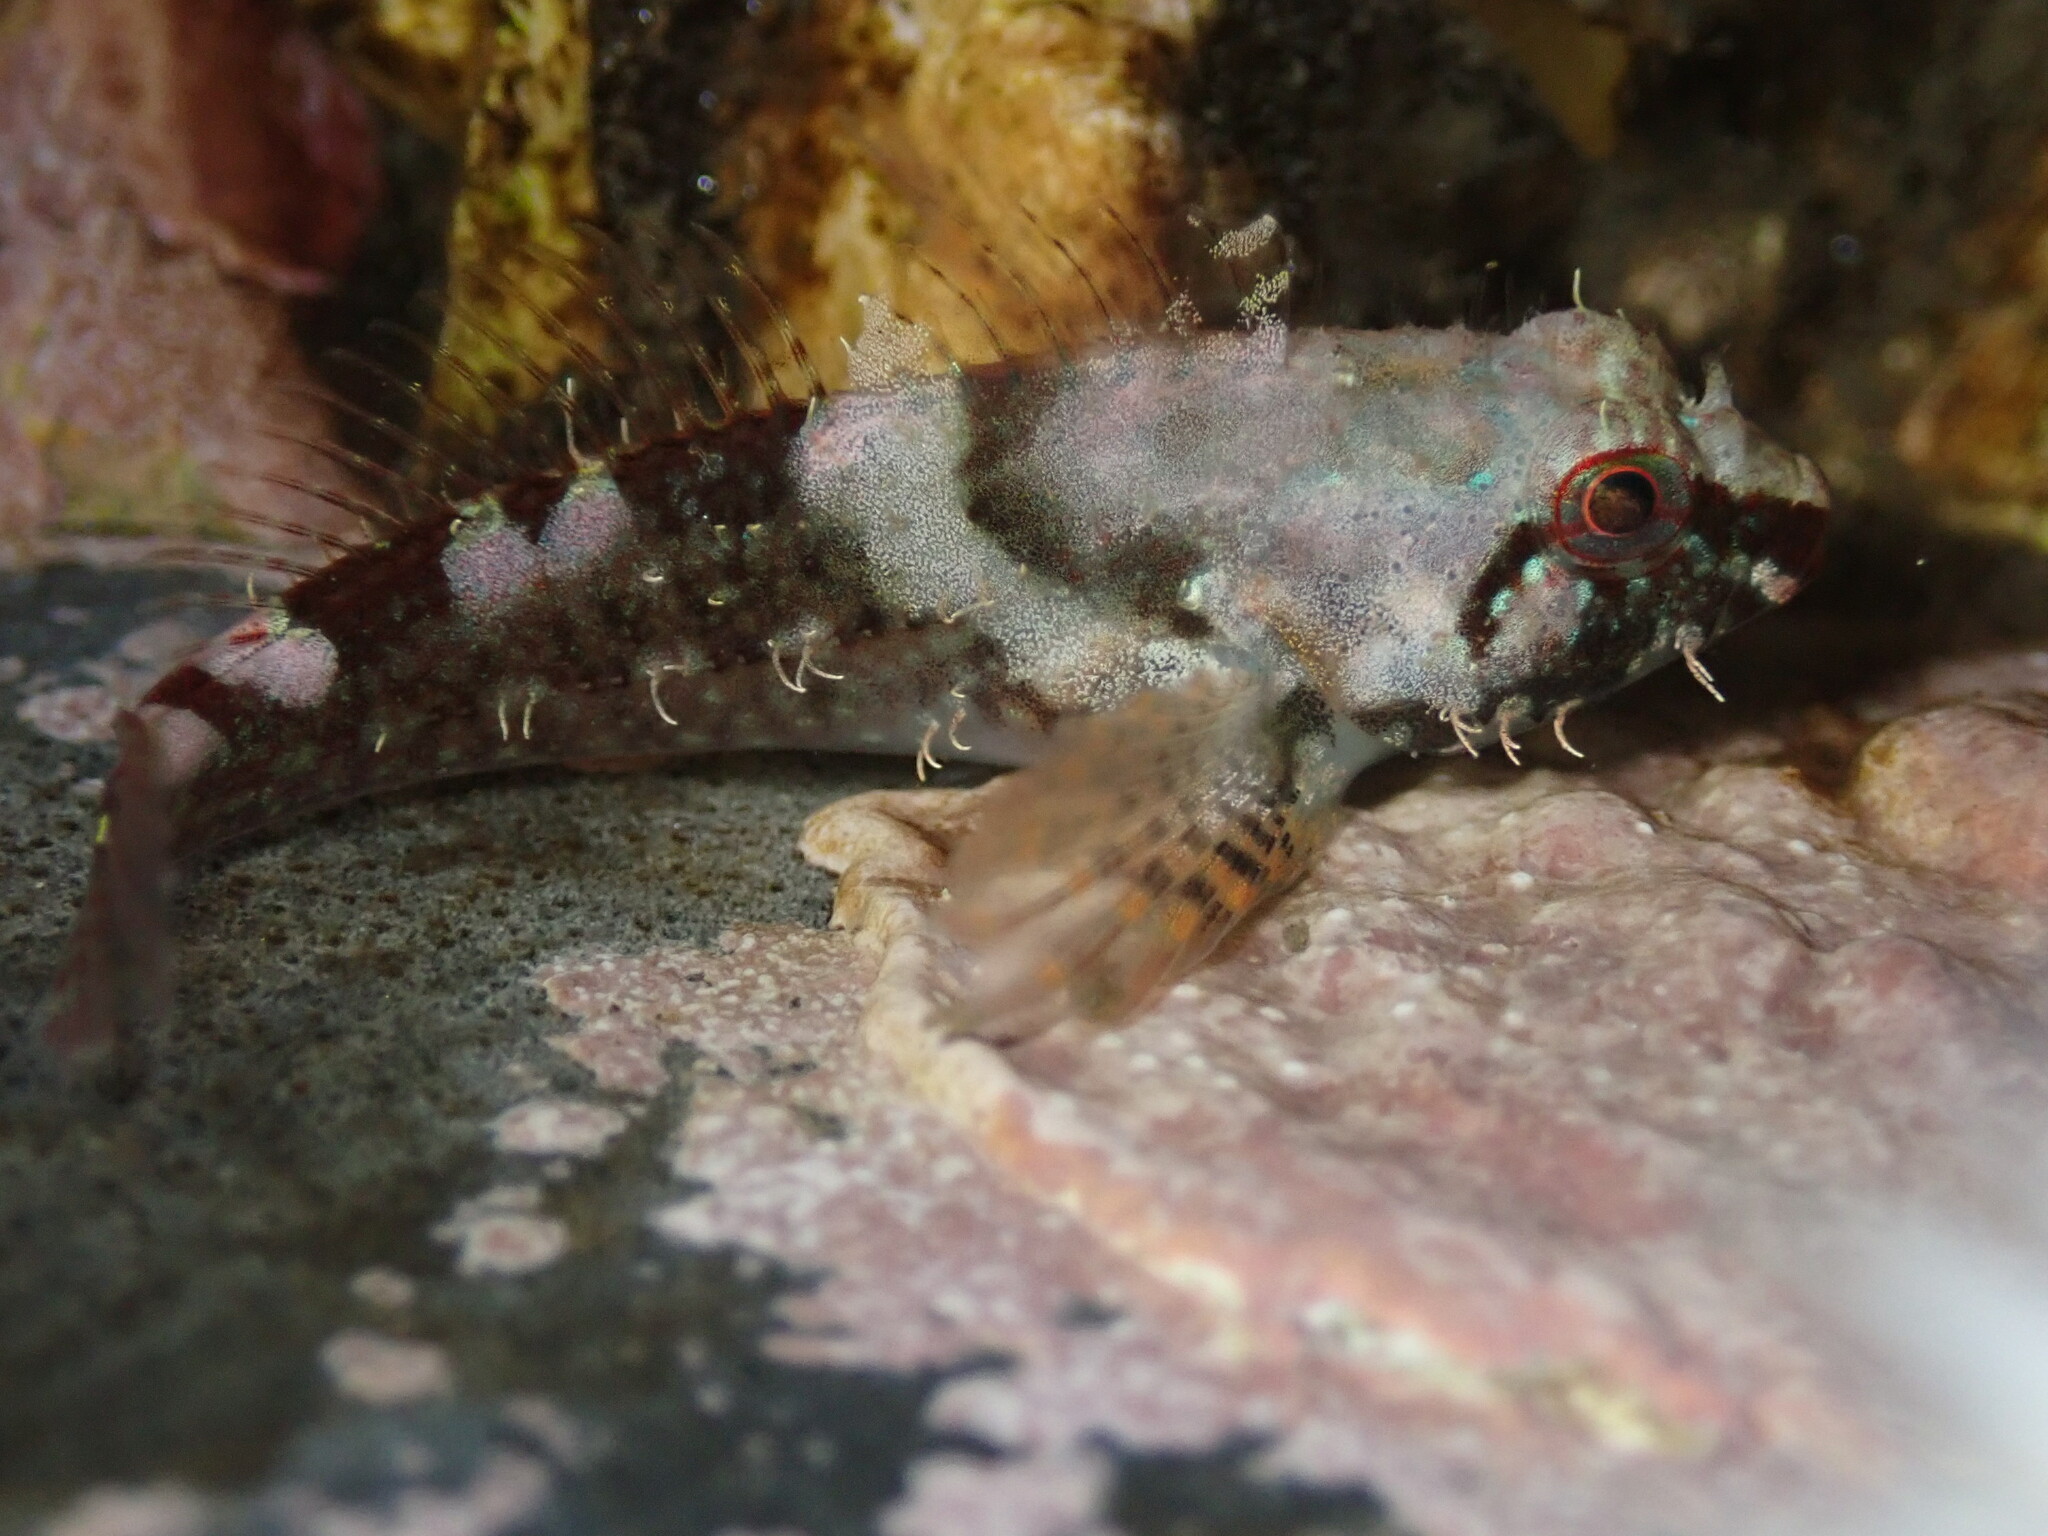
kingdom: Animalia
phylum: Chordata
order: Scorpaeniformes
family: Cottidae
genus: Oligocottus
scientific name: Oligocottus rubellio
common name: Rosy sculpin
